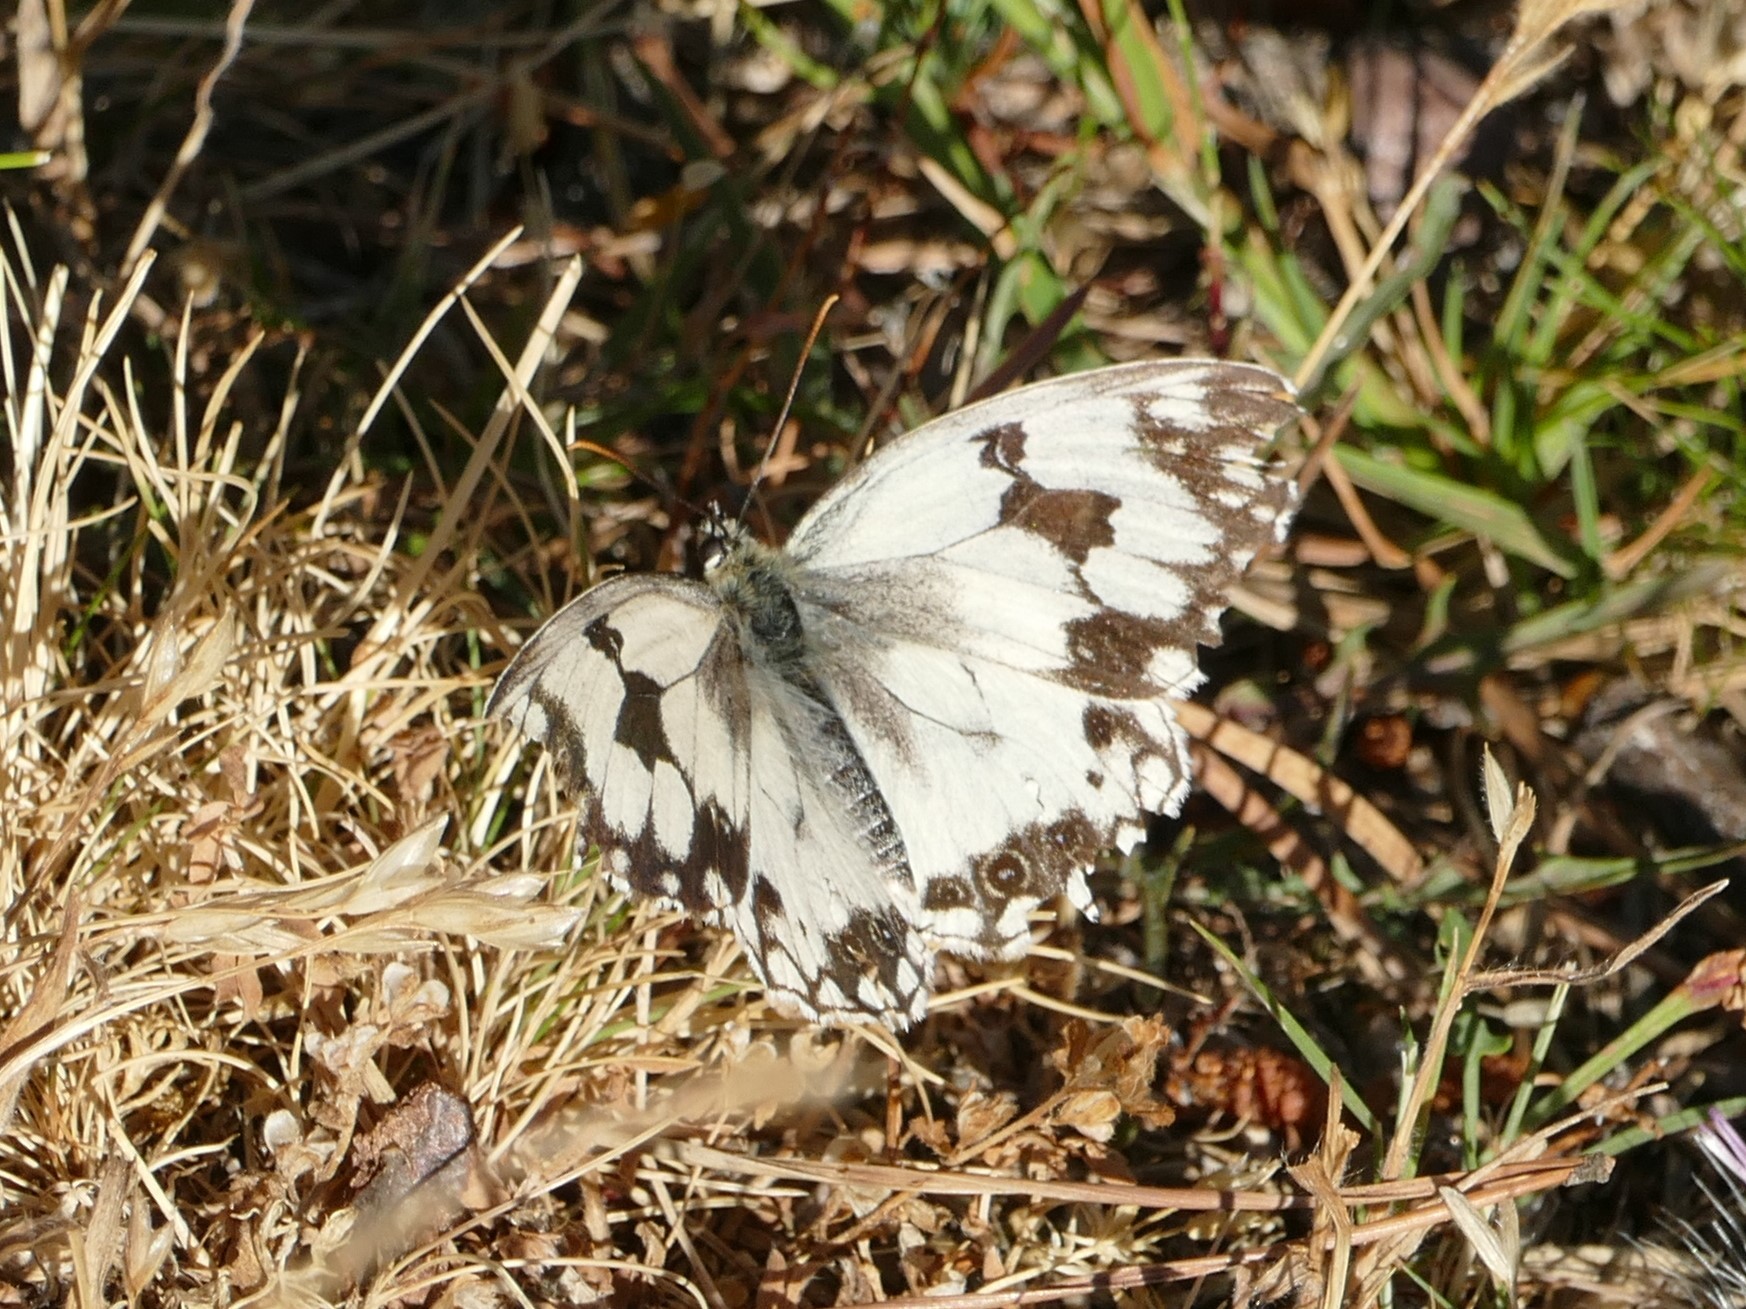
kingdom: Animalia
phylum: Arthropoda
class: Insecta
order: Lepidoptera
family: Nymphalidae
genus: Melanargia
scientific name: Melanargia lachesis
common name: Iberian marbled white
